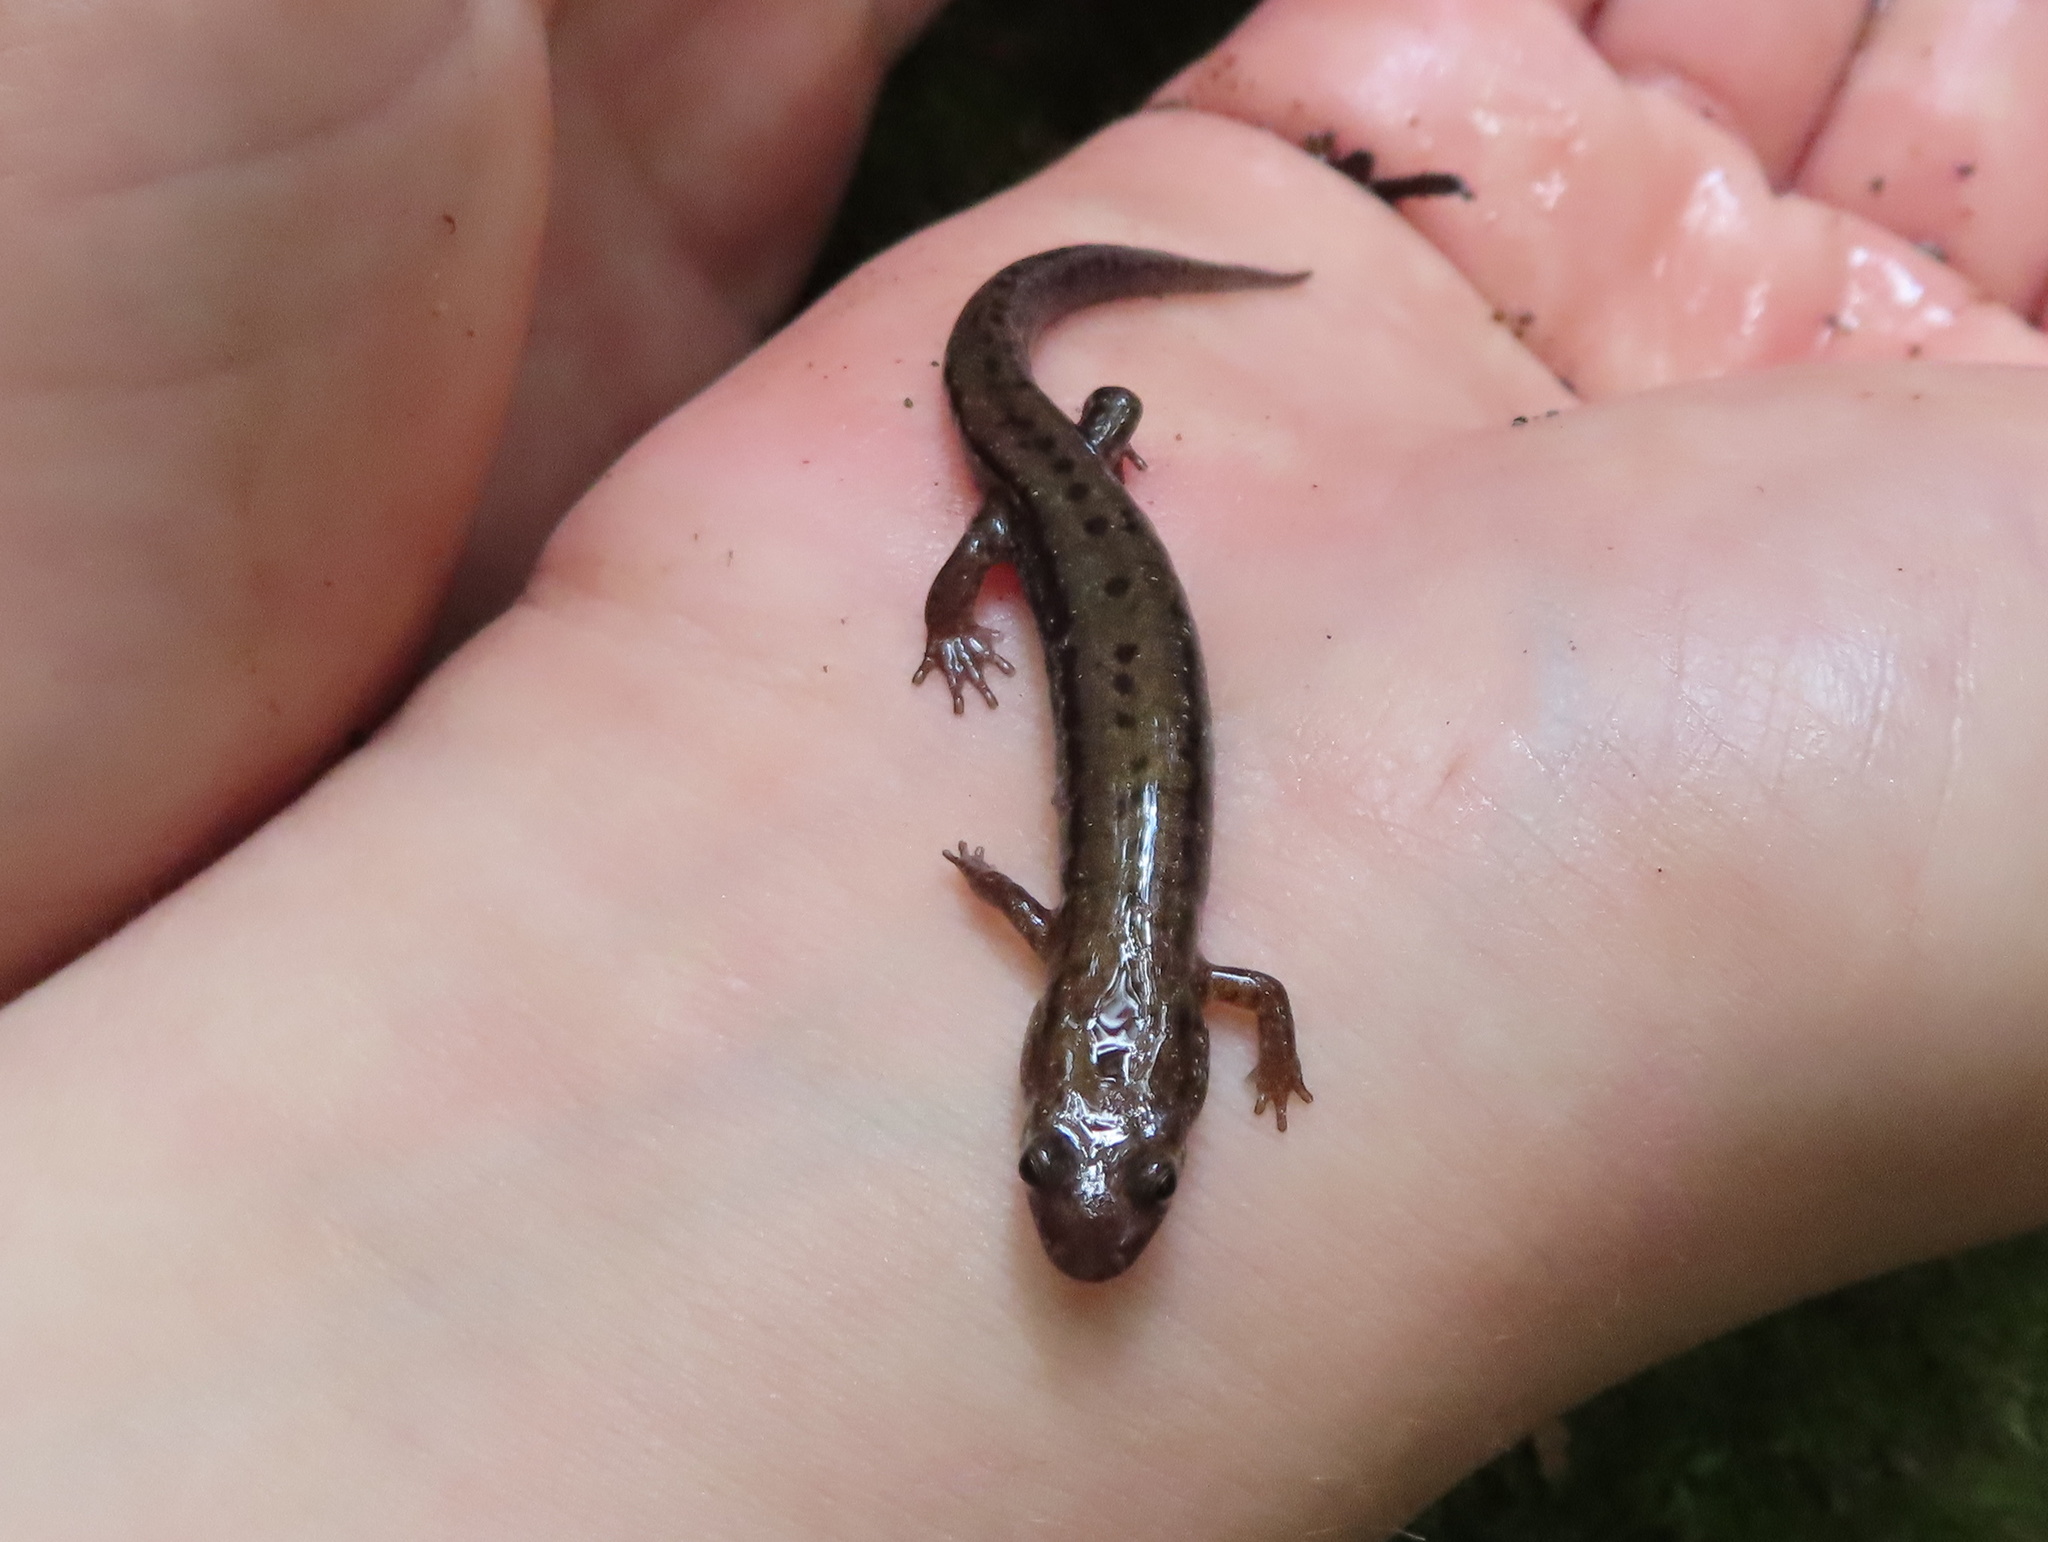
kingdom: Animalia
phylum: Chordata
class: Amphibia
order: Caudata
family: Plethodontidae
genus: Desmognathus
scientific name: Desmognathus ochrophaeus
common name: Allegheny mountain dusky salamander
